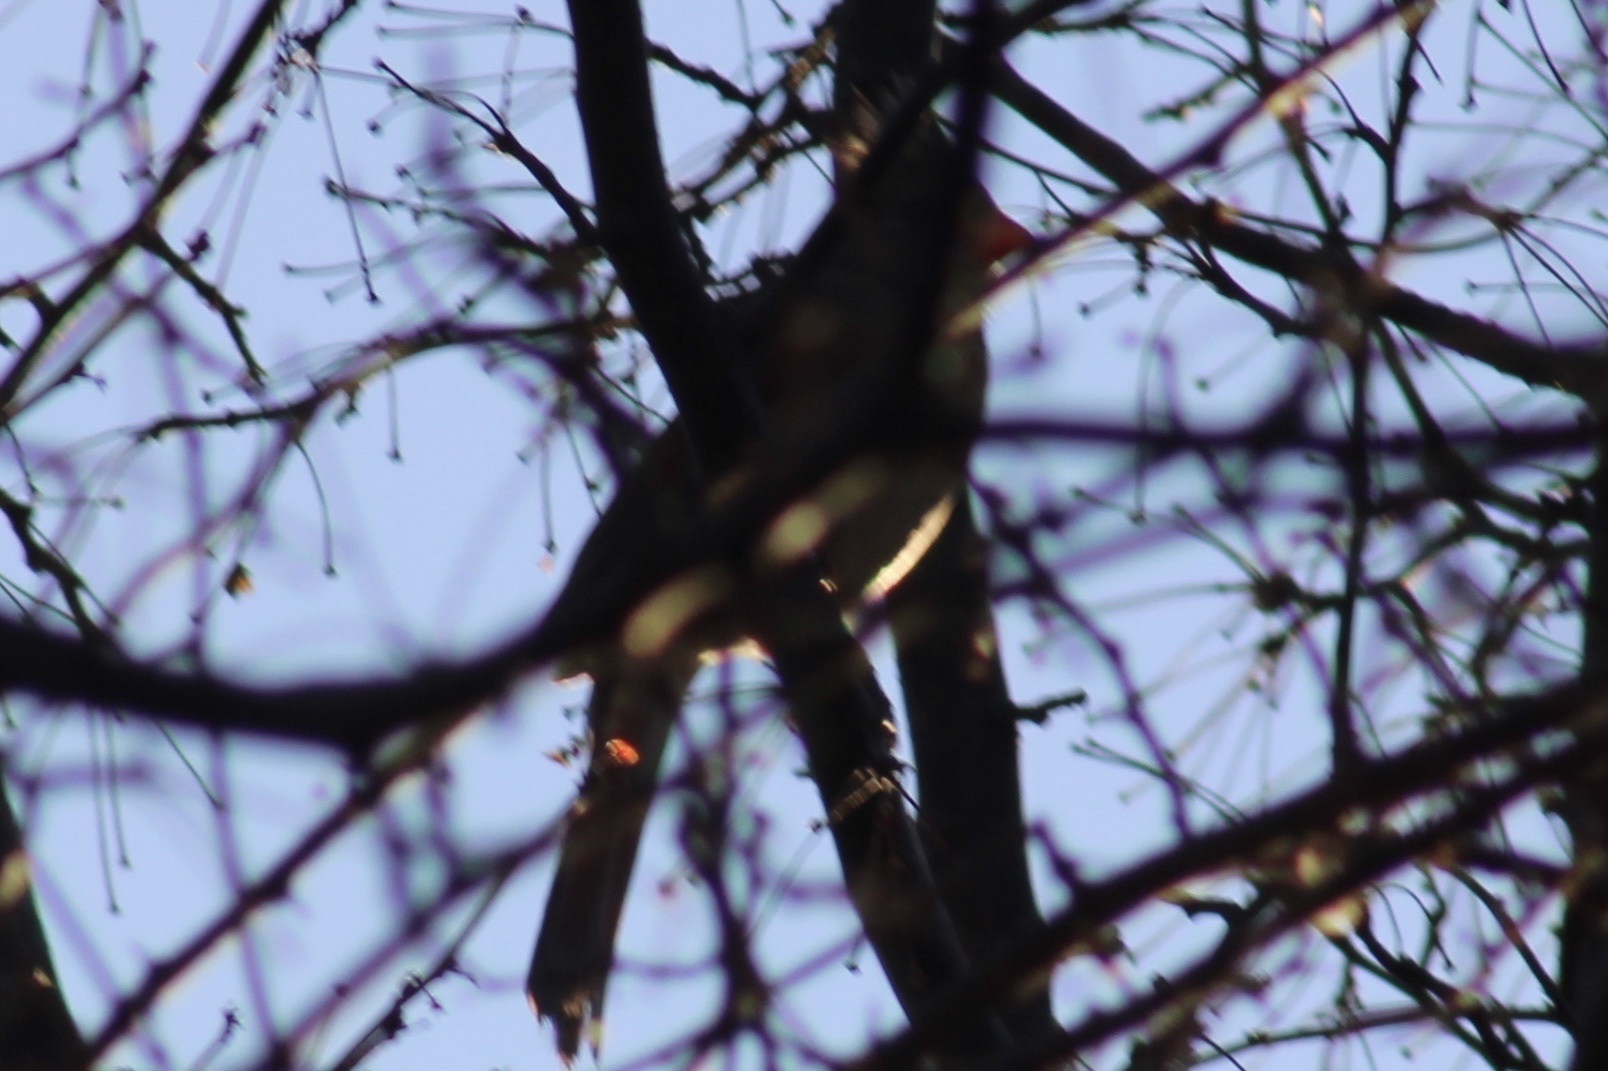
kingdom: Animalia
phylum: Chordata
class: Aves
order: Passeriformes
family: Cardinalidae
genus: Cardinalis
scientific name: Cardinalis cardinalis
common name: Northern cardinal
